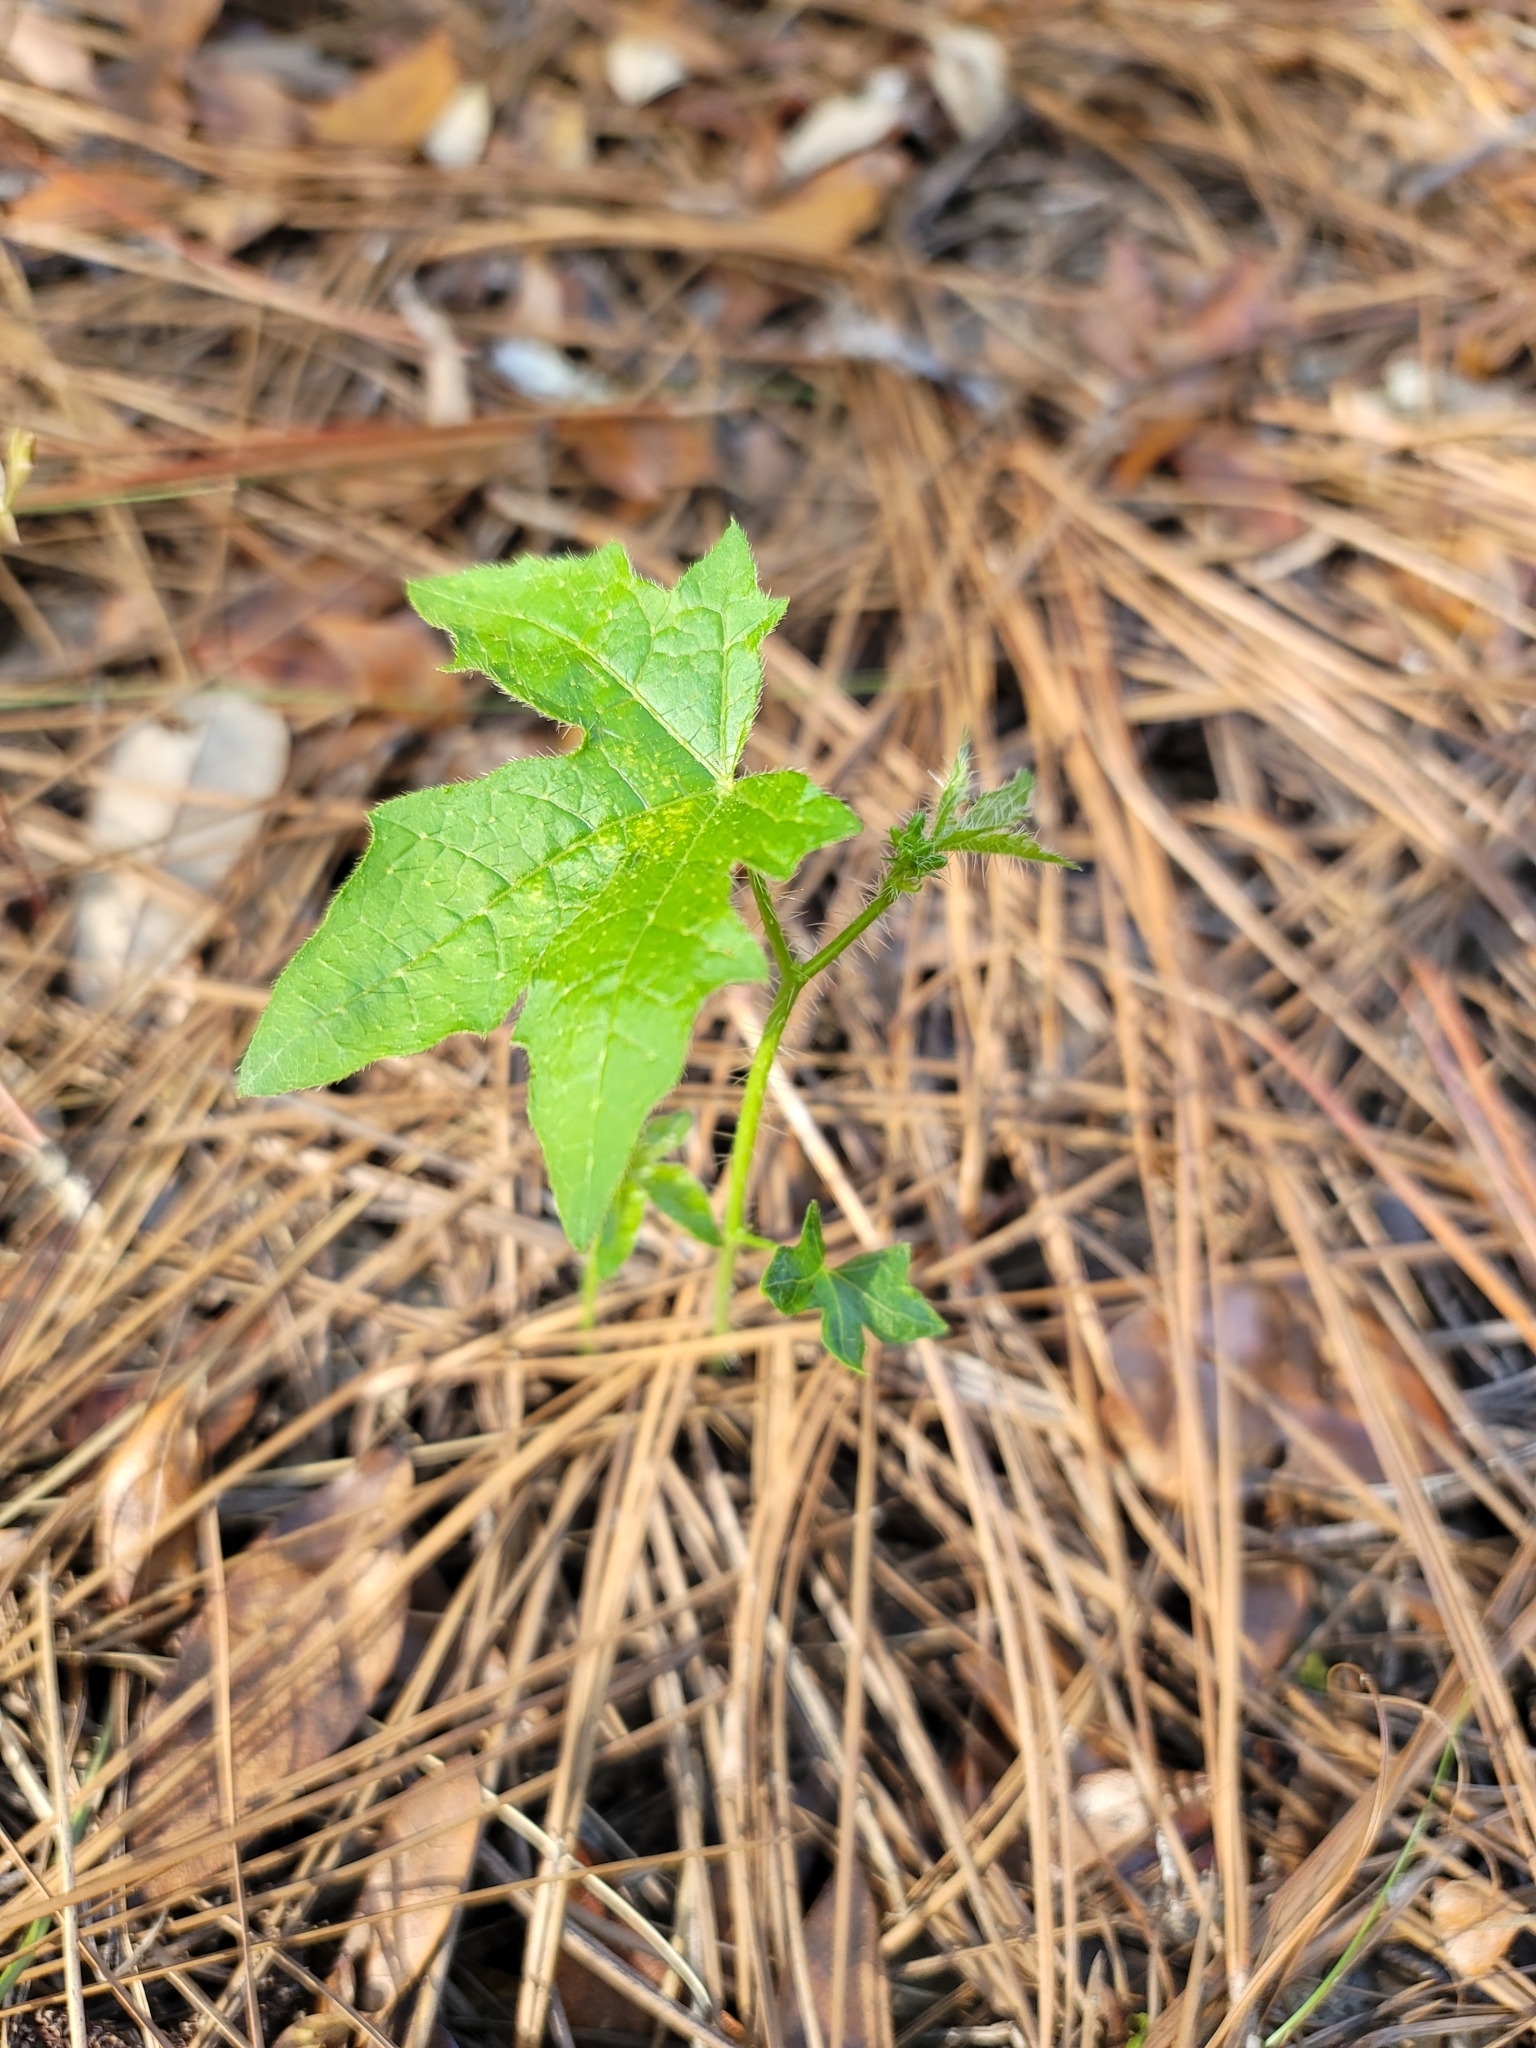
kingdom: Plantae
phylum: Tracheophyta
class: Magnoliopsida
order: Malpighiales
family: Euphorbiaceae
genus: Cnidoscolus
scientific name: Cnidoscolus stimulosus
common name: Bull-nettle
